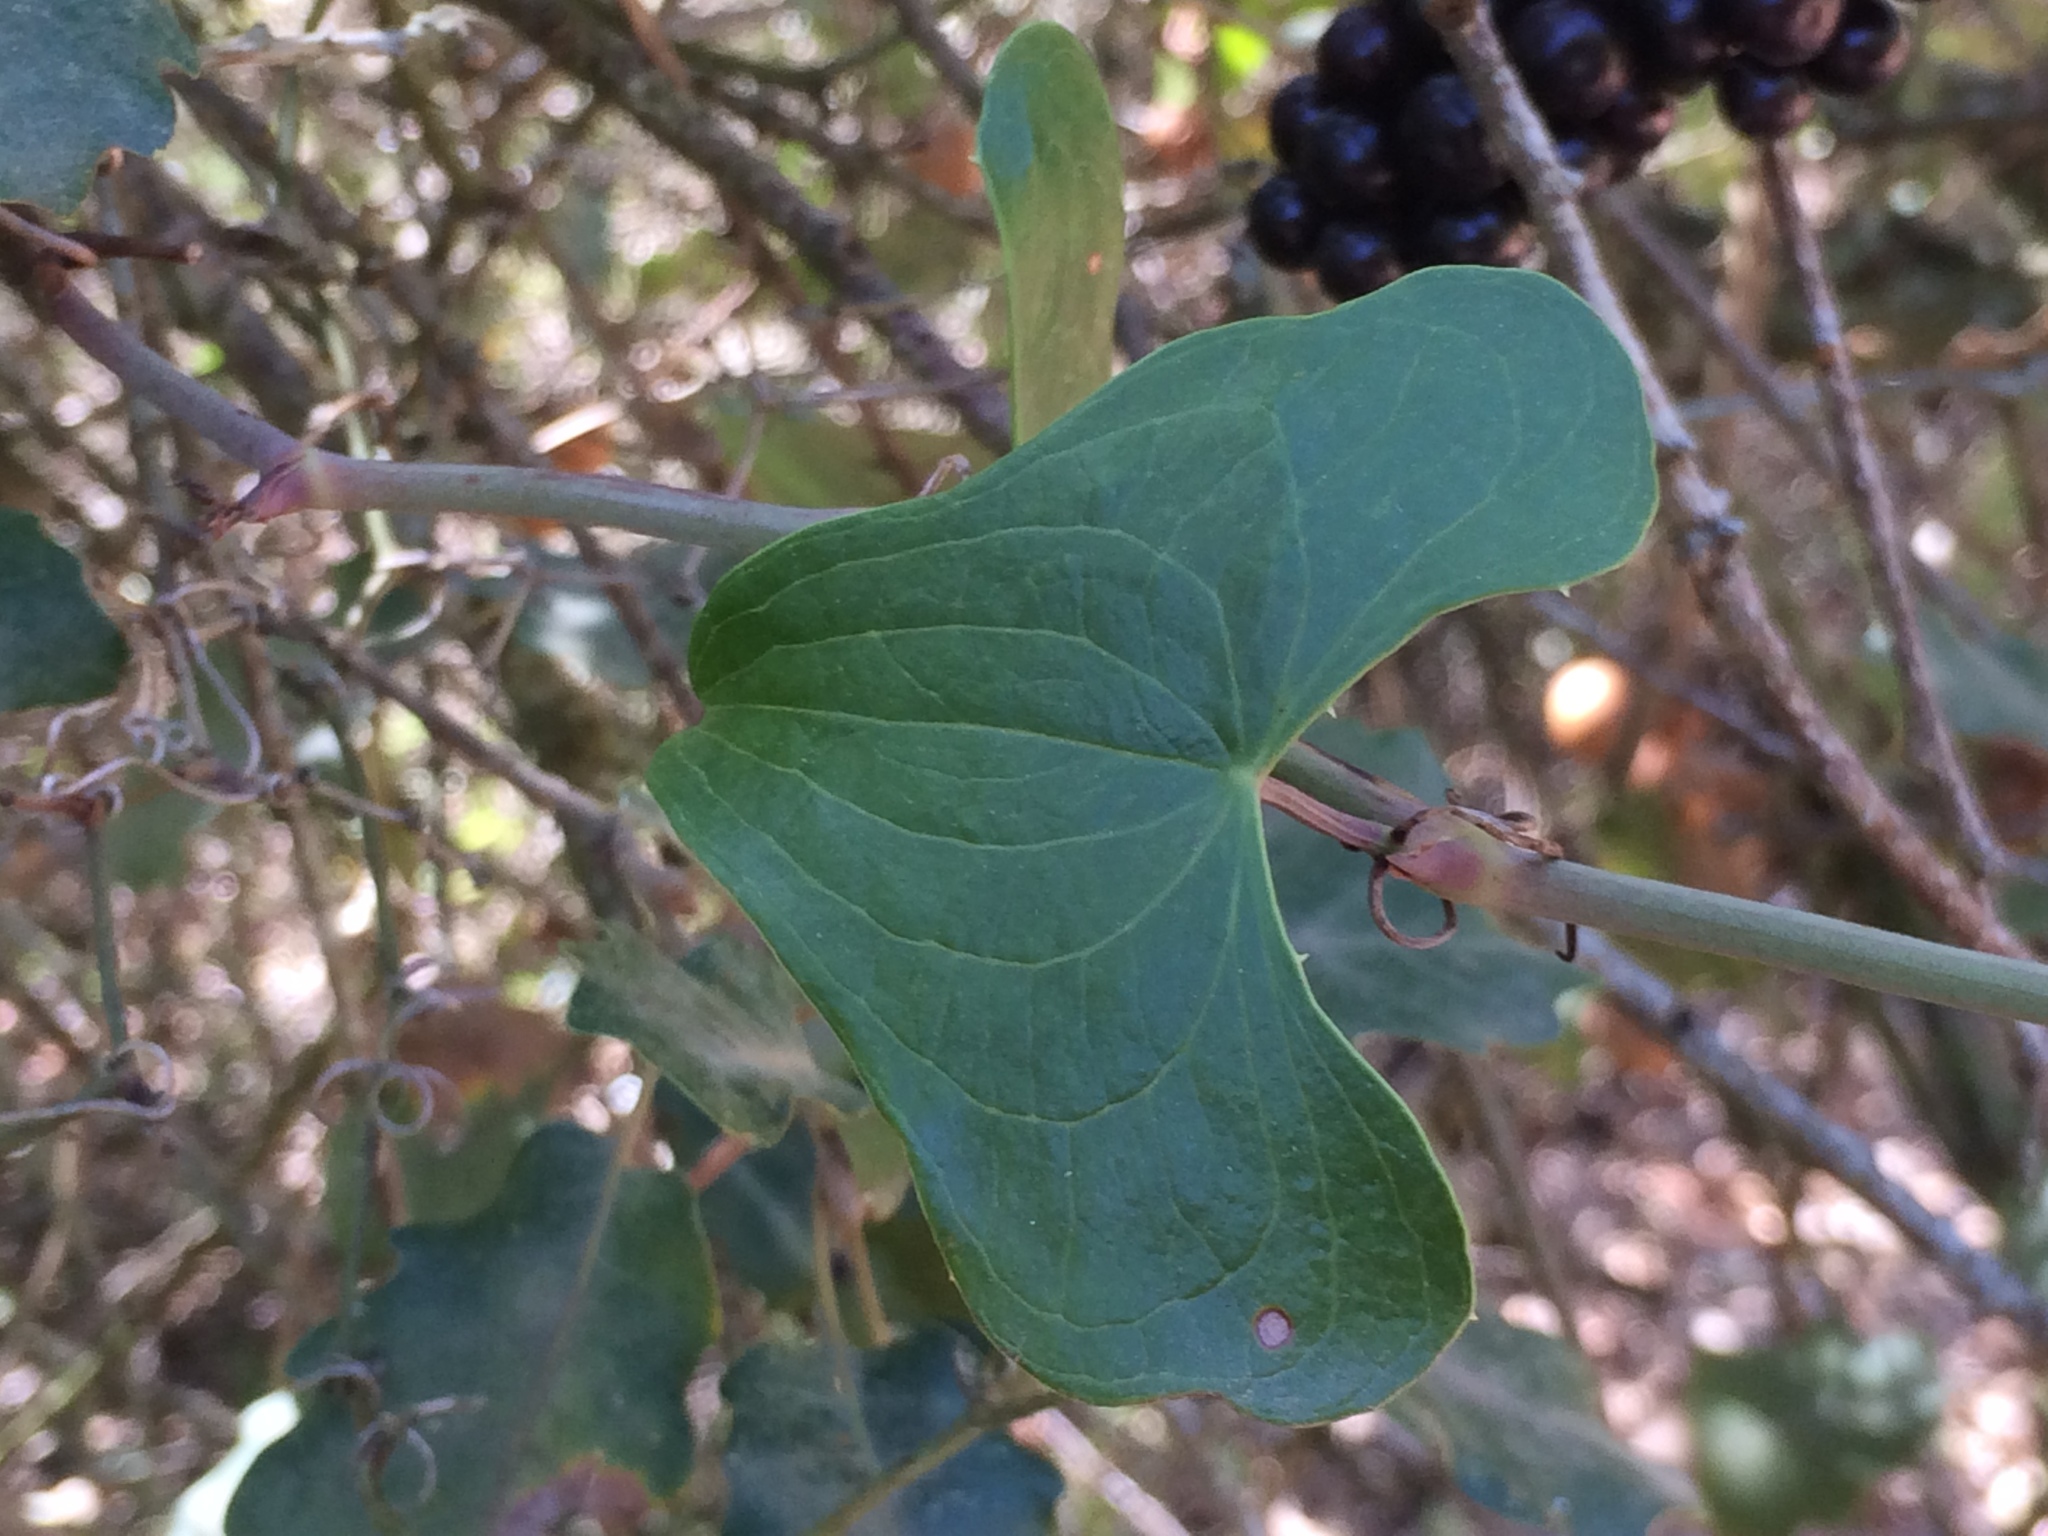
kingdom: Plantae
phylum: Tracheophyta
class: Liliopsida
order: Liliales
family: Smilacaceae
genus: Smilax
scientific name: Smilax aspera
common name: Common smilax
